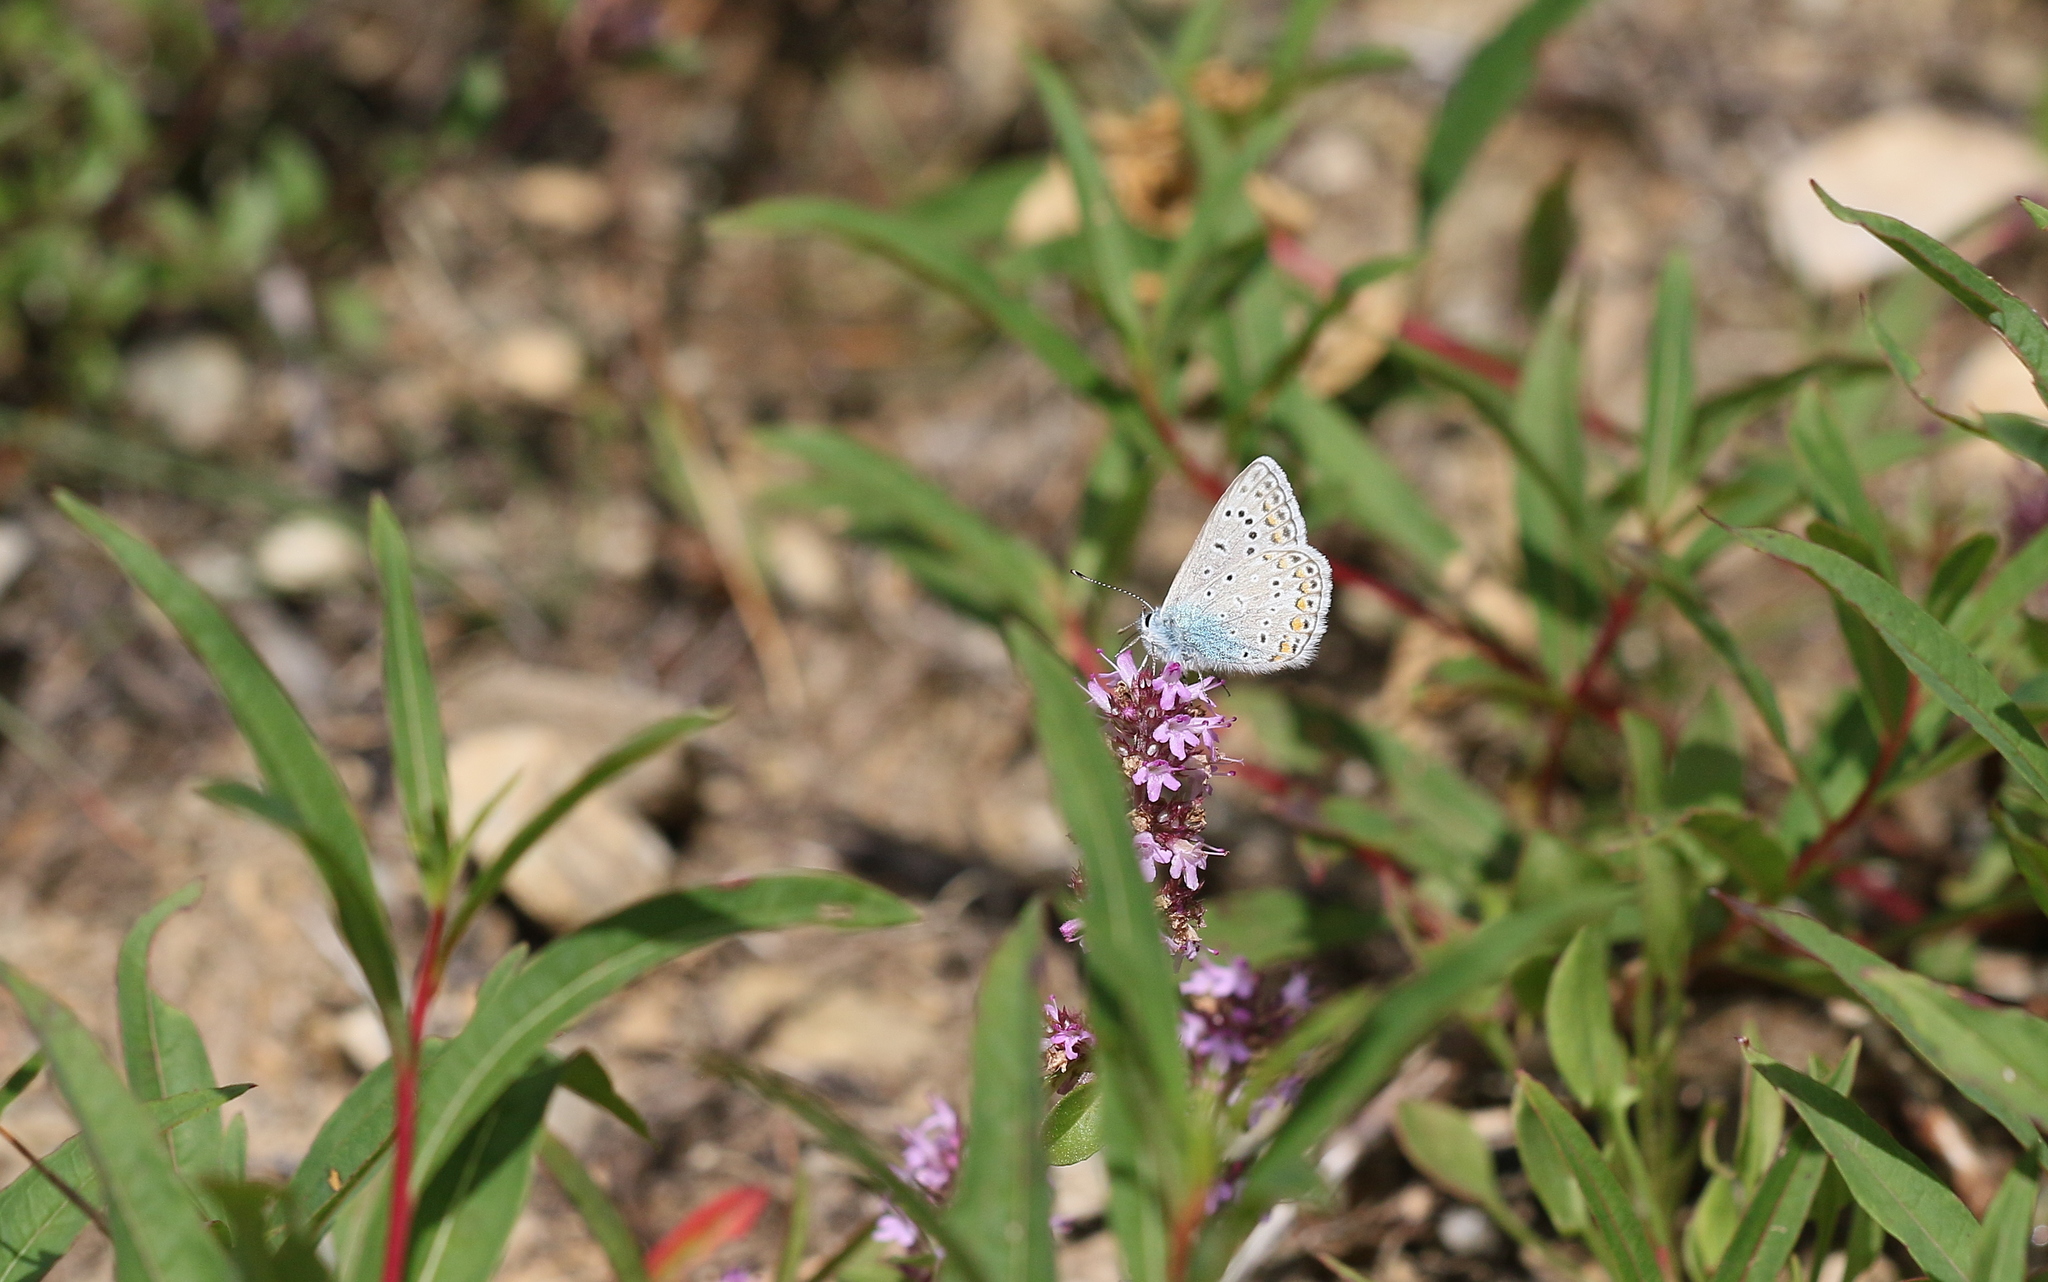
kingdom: Animalia
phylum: Arthropoda
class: Insecta
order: Lepidoptera
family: Lycaenidae
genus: Polyommatus
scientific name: Polyommatus icarus
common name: Common blue
